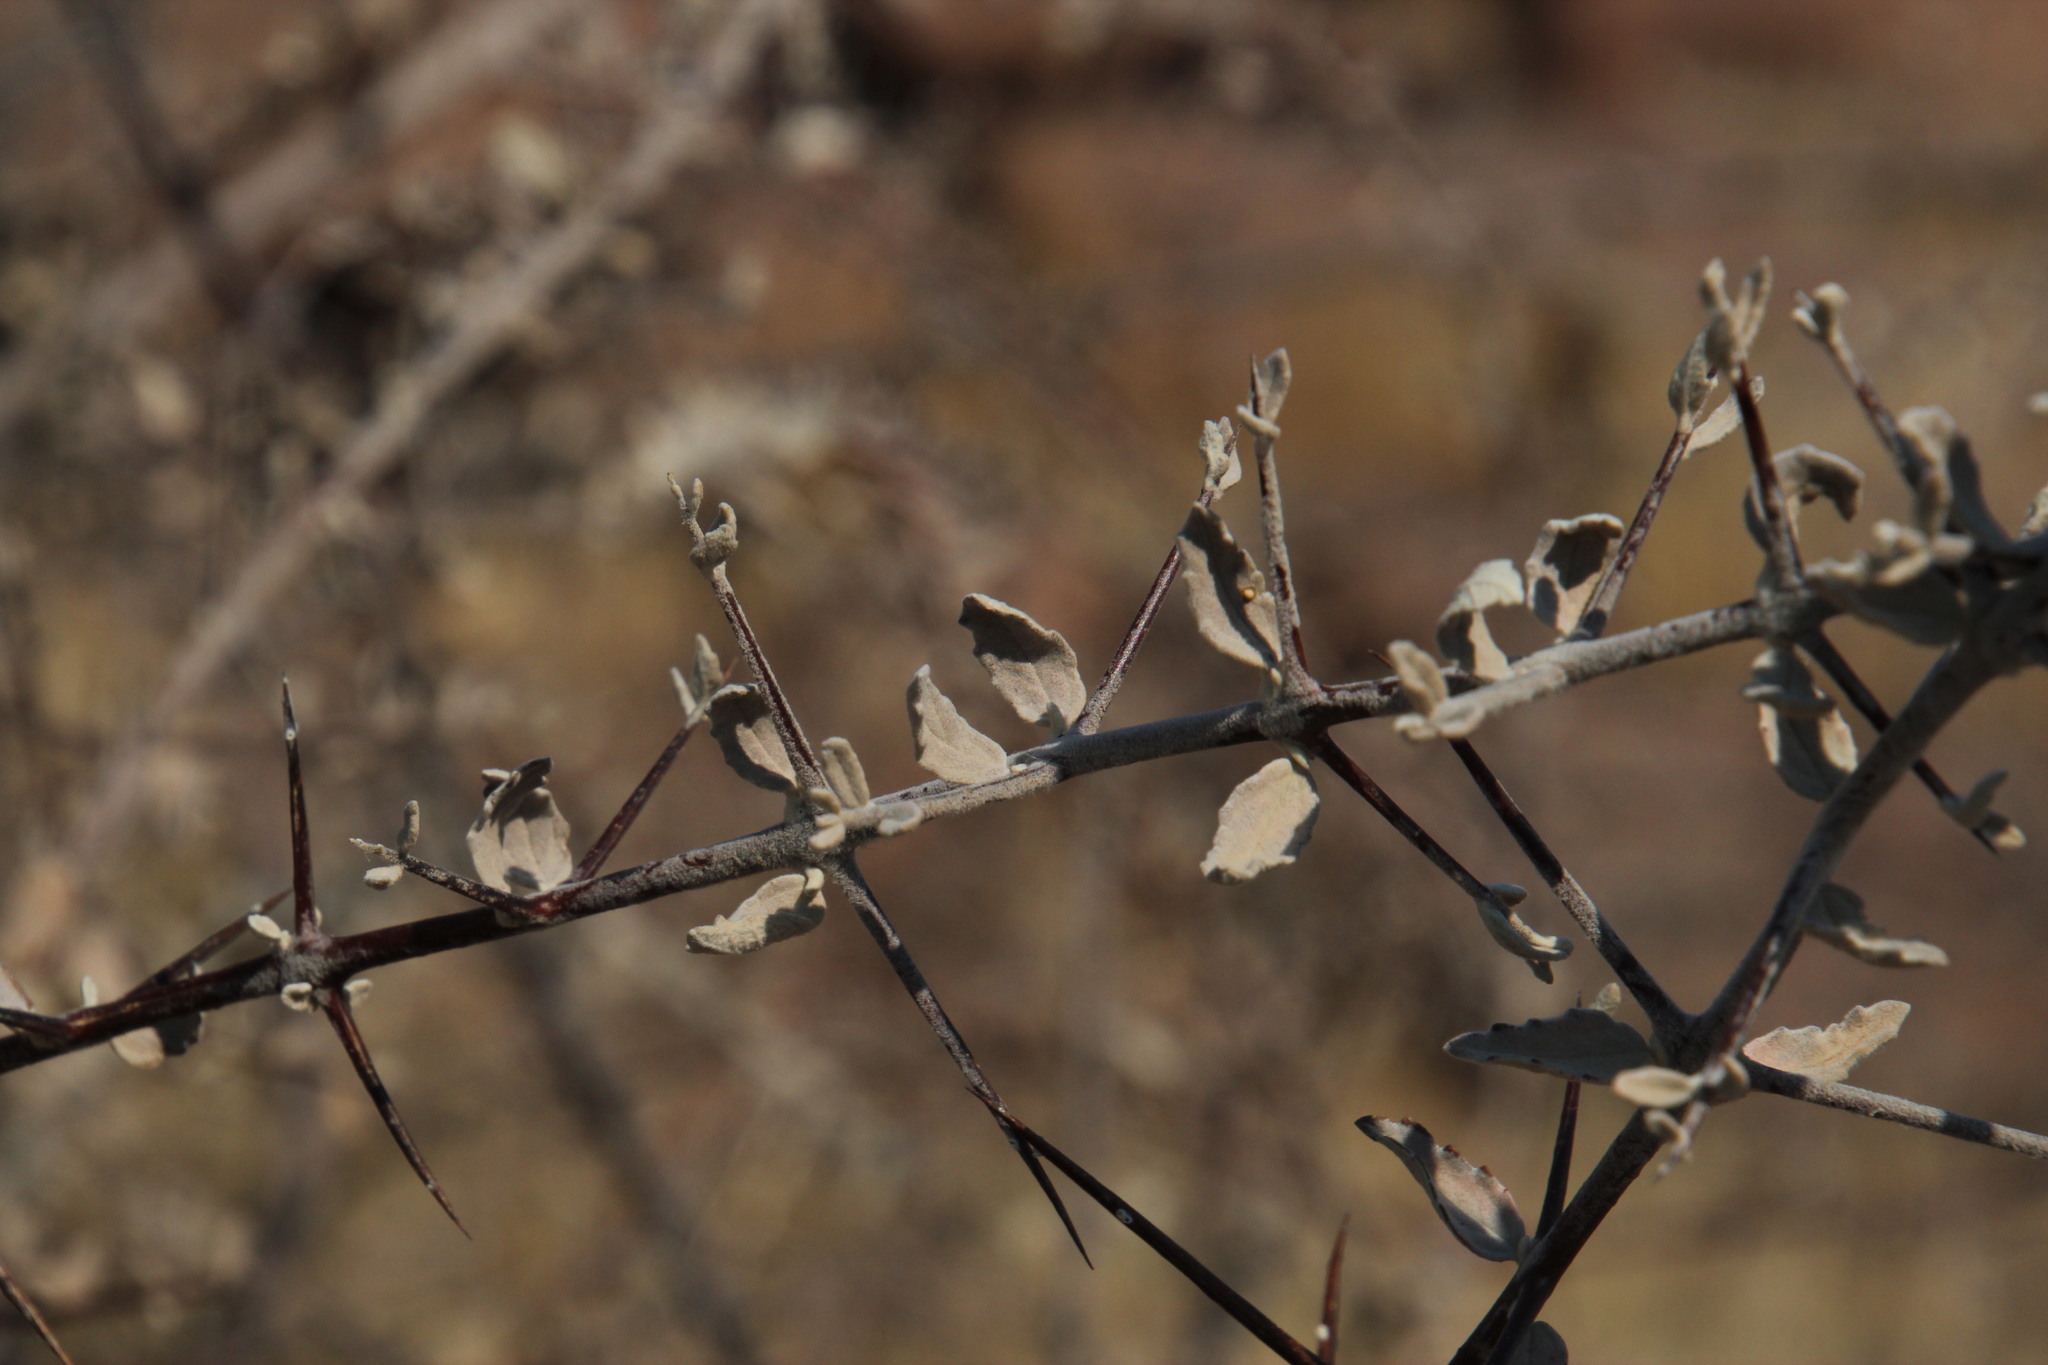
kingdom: Plantae
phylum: Tracheophyta
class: Magnoliopsida
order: Lamiales
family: Bignoniaceae
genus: Catophractes
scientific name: Catophractes alexandri
